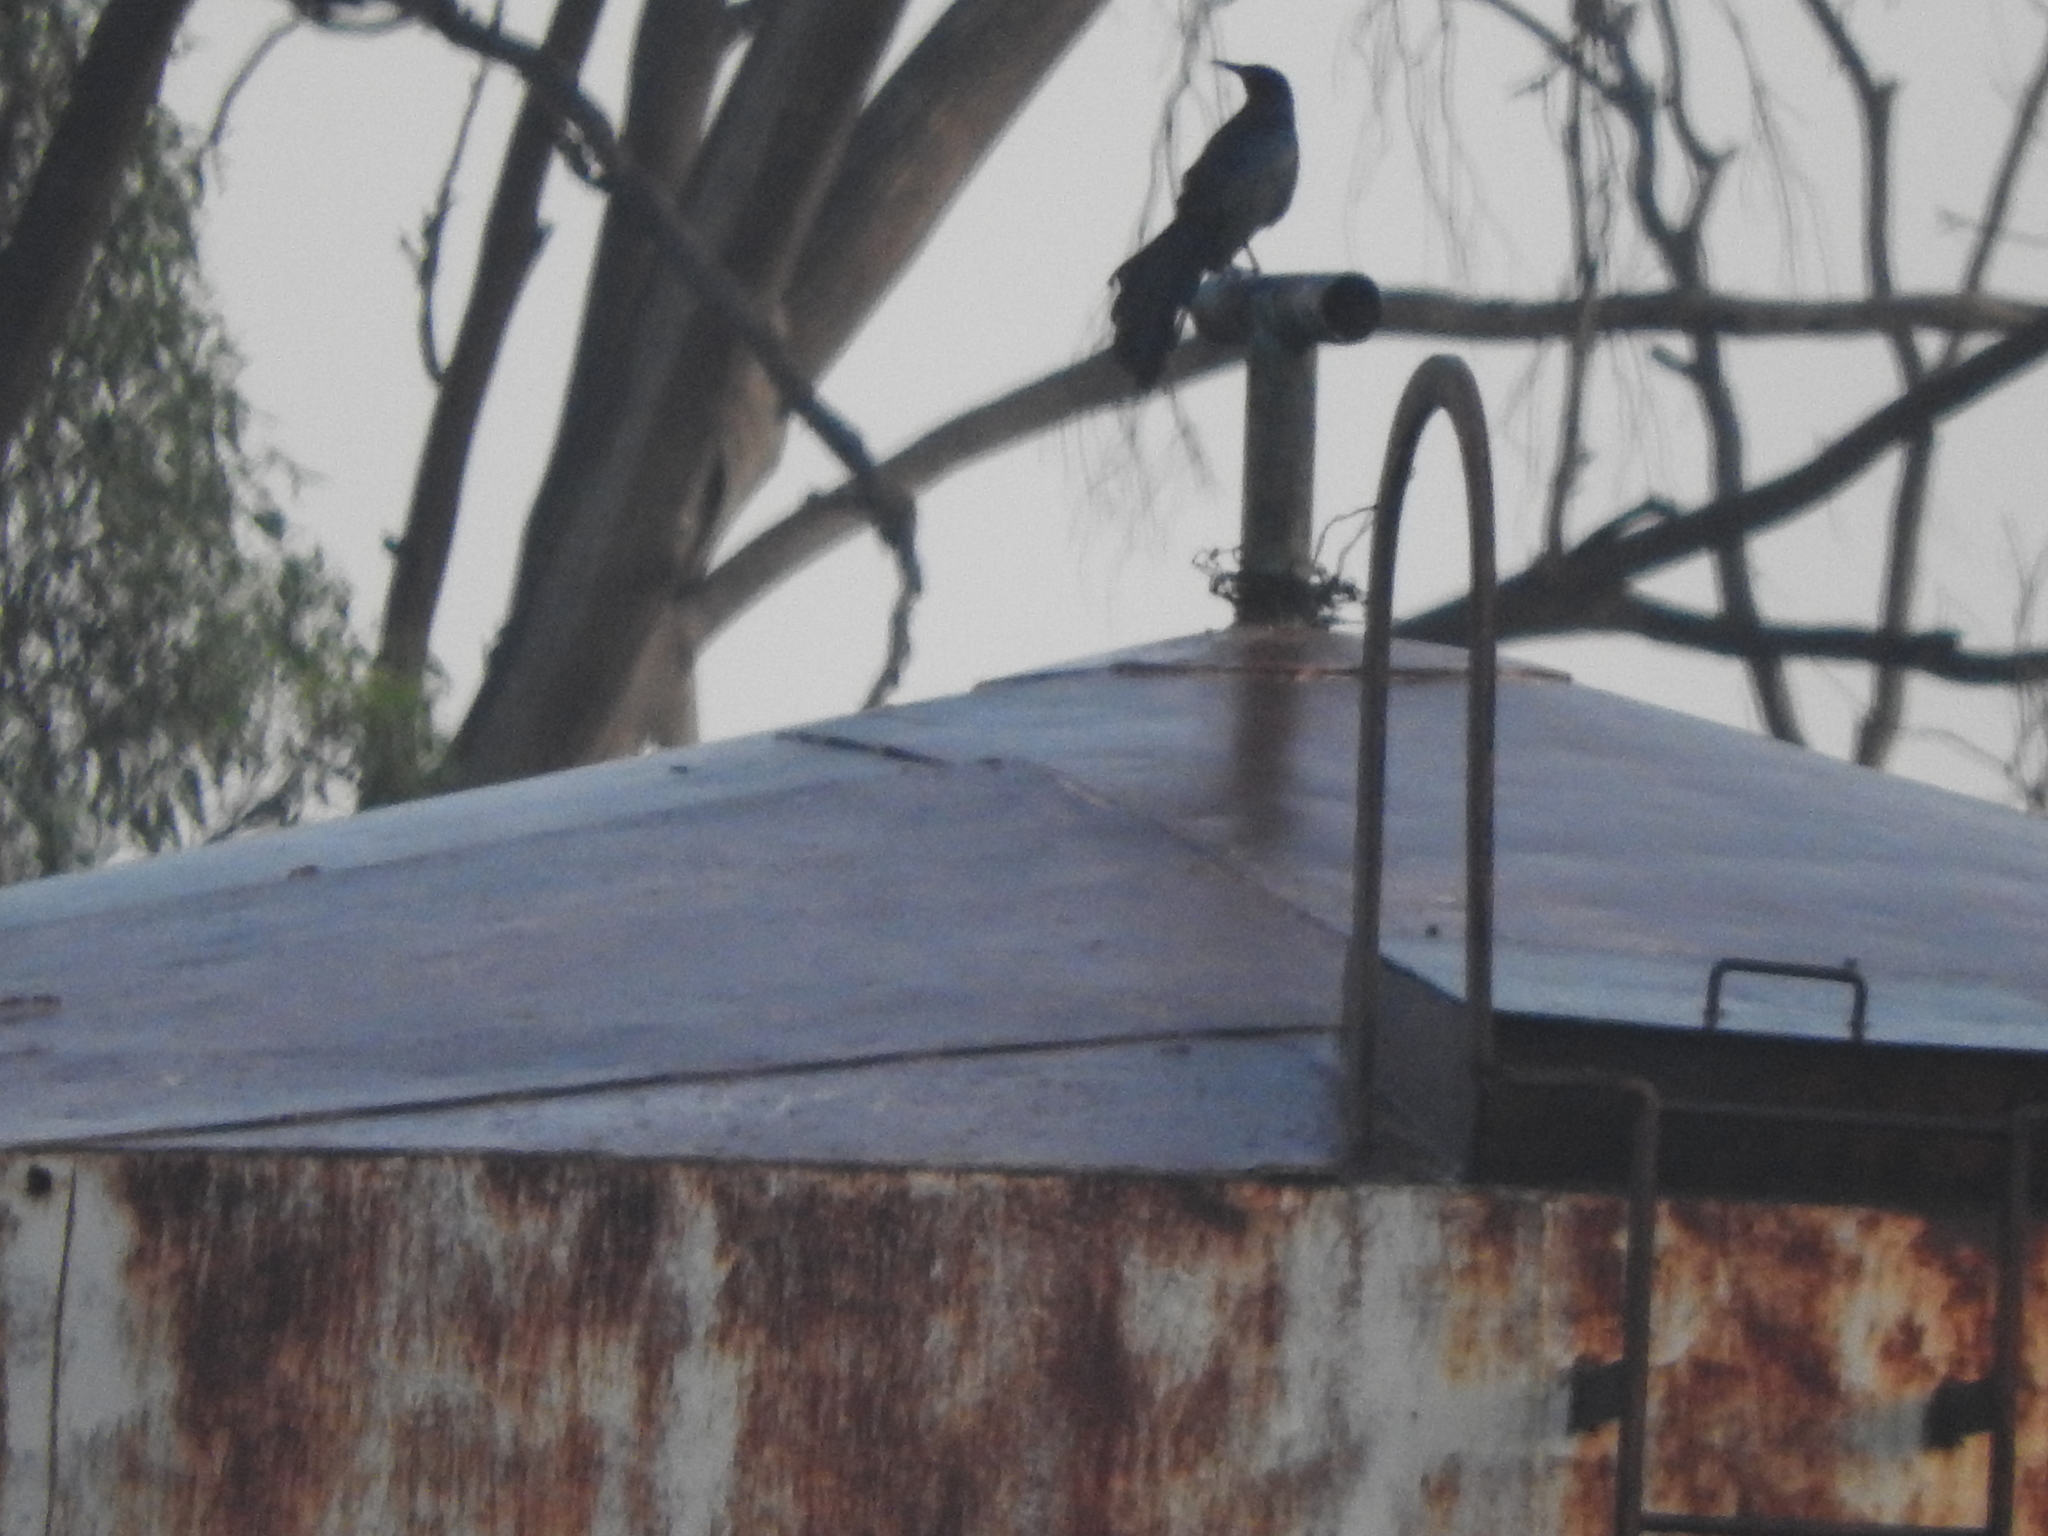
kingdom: Animalia
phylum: Chordata
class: Aves
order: Passeriformes
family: Icteridae
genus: Quiscalus
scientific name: Quiscalus mexicanus
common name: Great-tailed grackle
